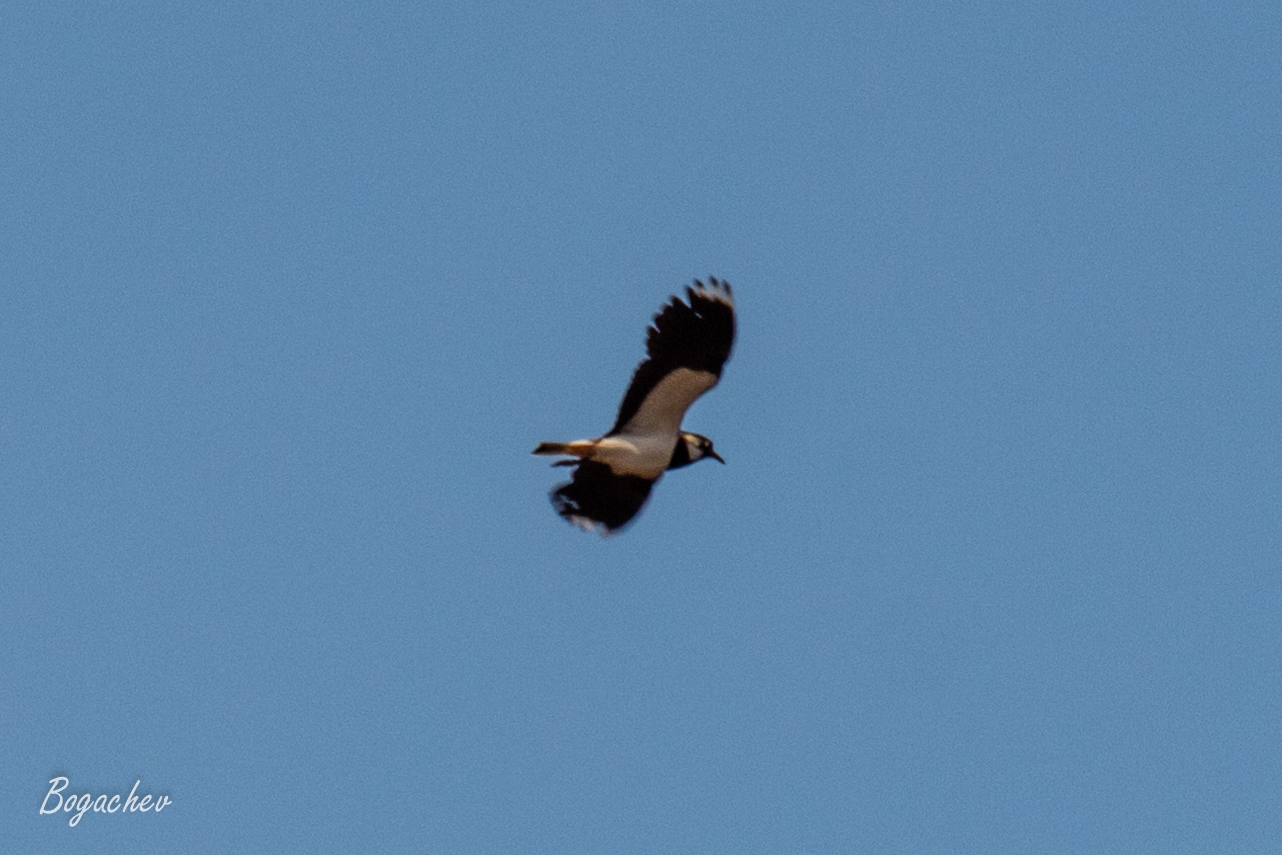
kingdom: Animalia
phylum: Chordata
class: Aves
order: Charadriiformes
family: Charadriidae
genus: Vanellus
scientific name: Vanellus vanellus
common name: Northern lapwing
